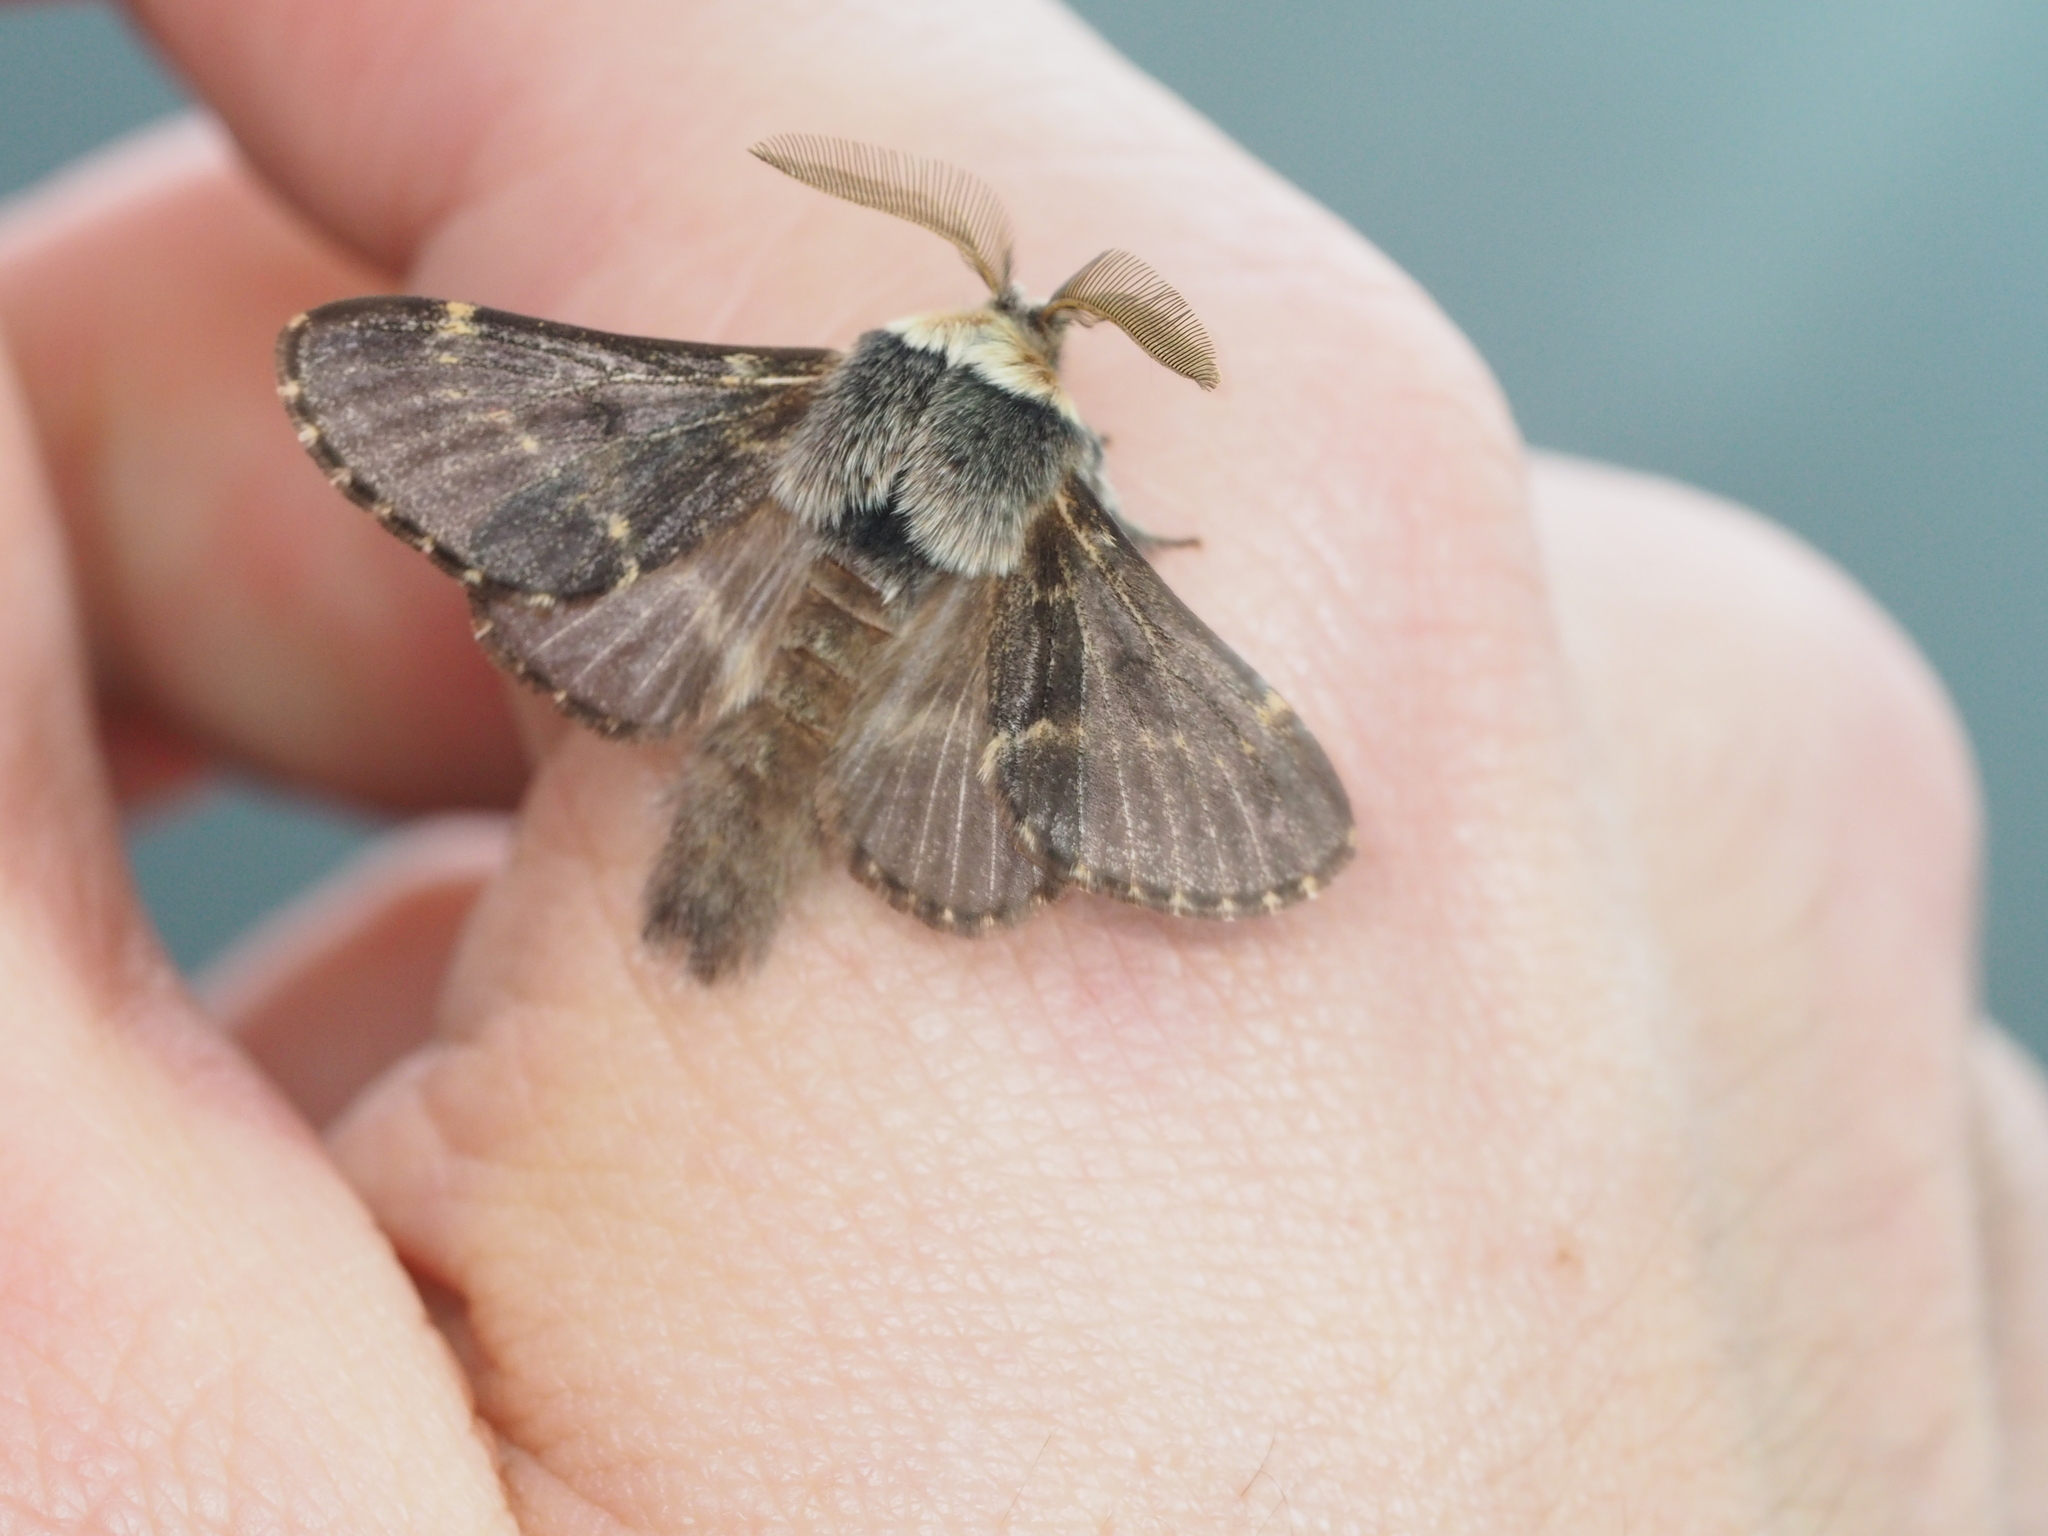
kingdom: Animalia
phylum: Arthropoda
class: Insecta
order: Lepidoptera
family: Lasiocampidae
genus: Poecilocampa
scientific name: Poecilocampa populi
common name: December moth
